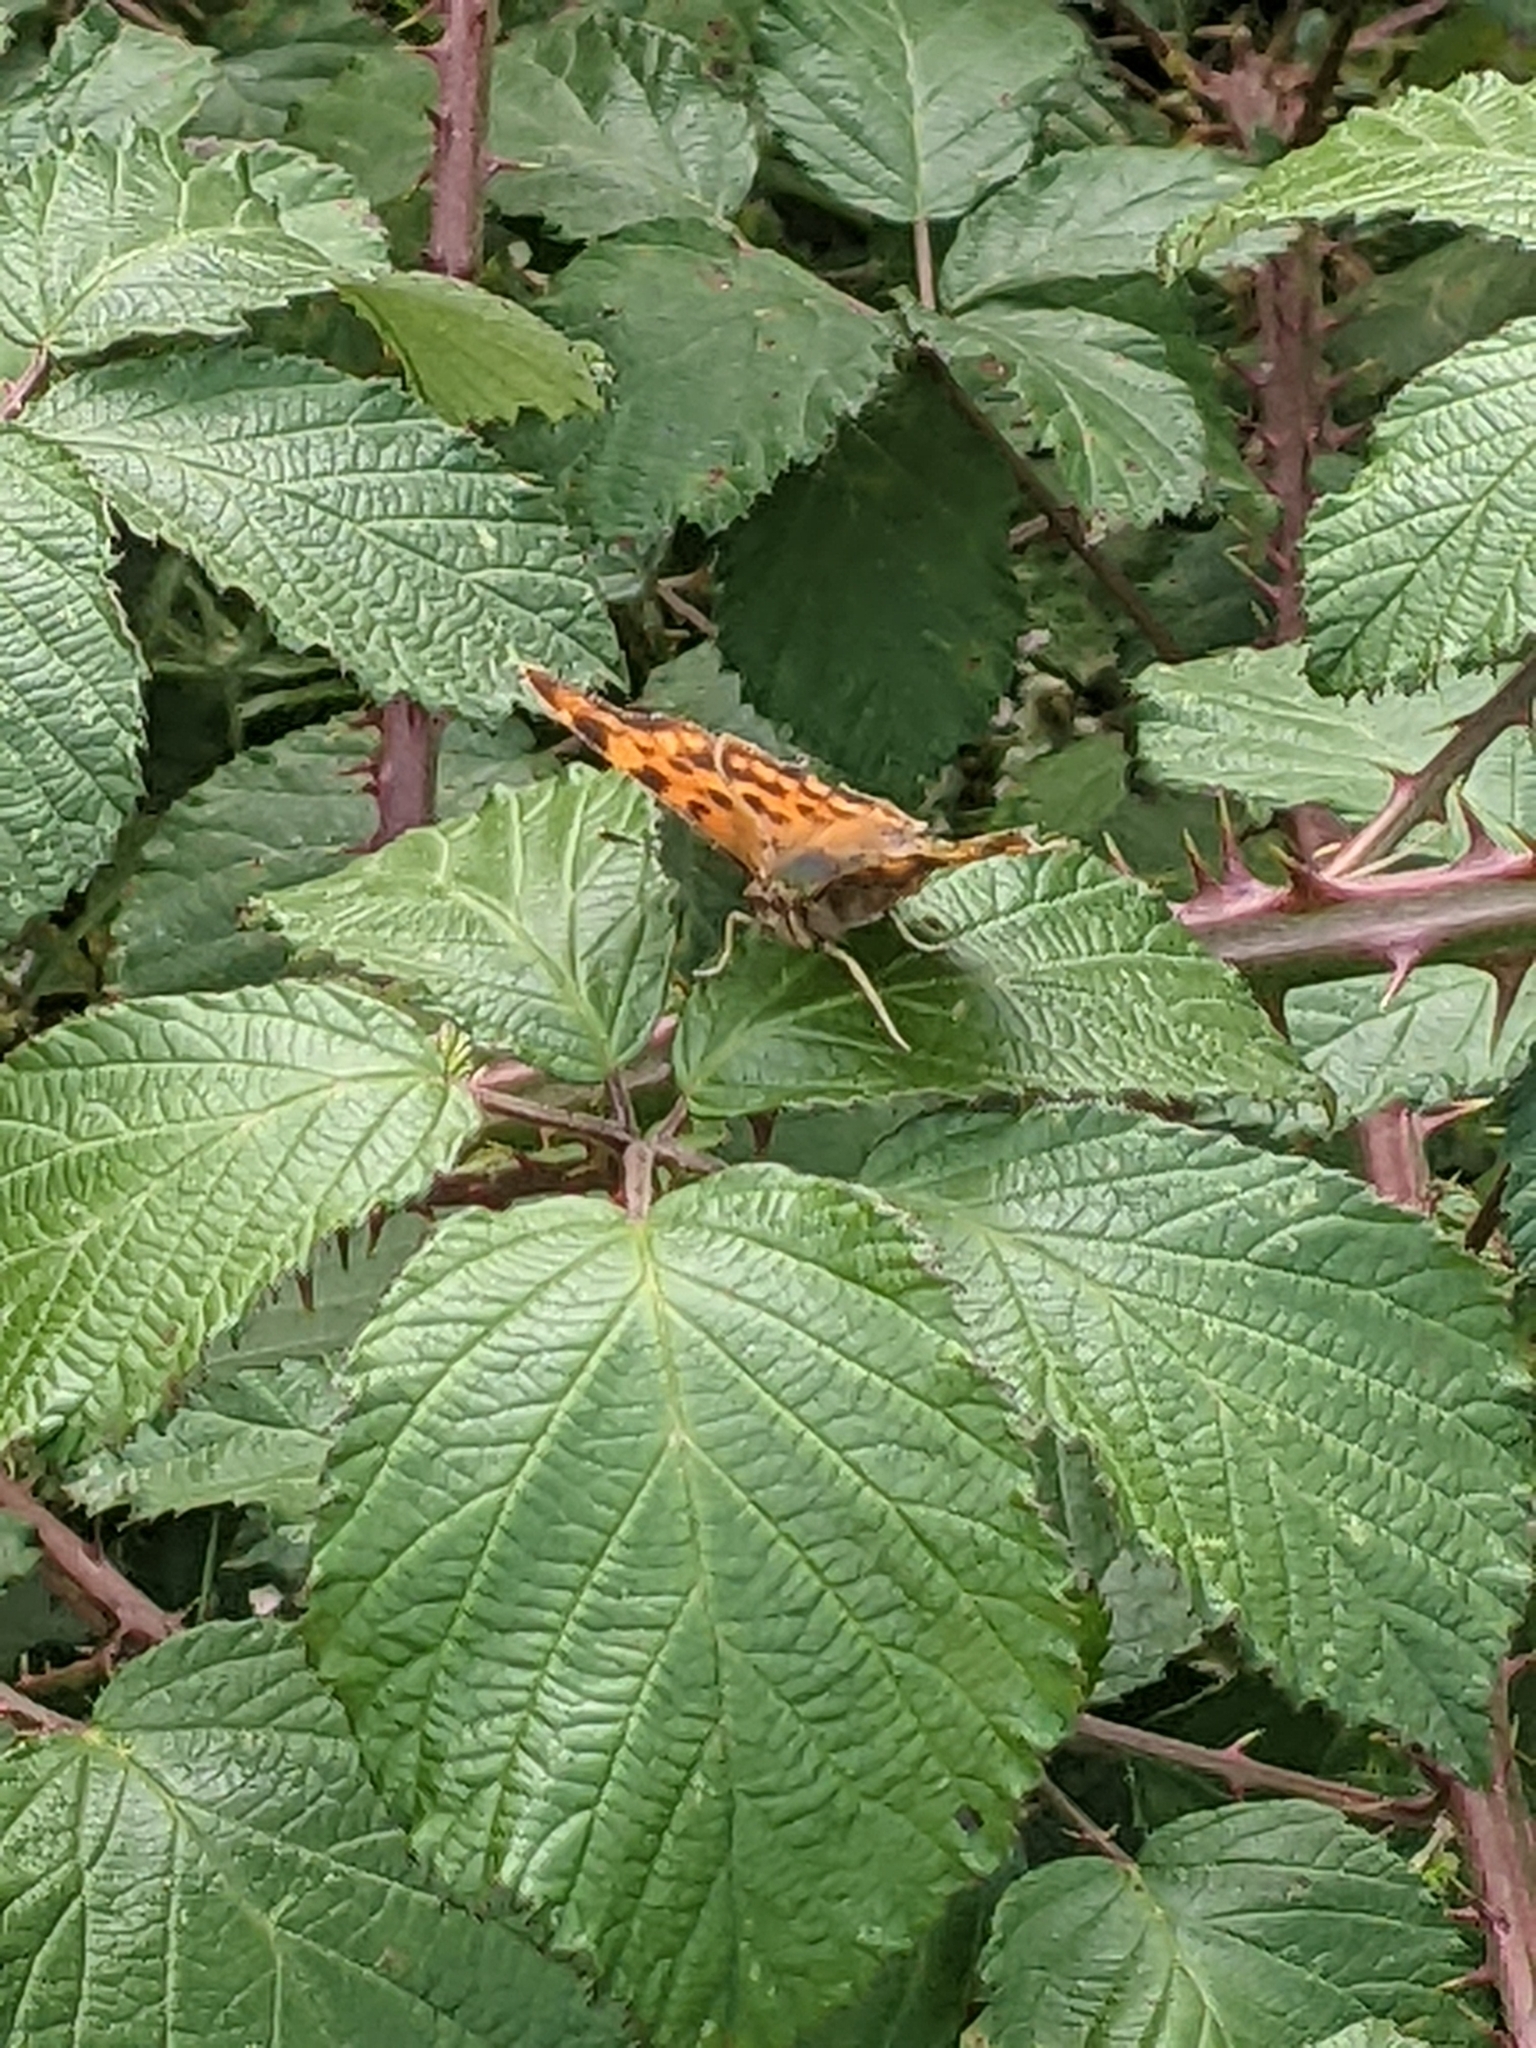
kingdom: Animalia
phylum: Arthropoda
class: Insecta
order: Lepidoptera
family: Nymphalidae
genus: Polygonia
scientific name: Polygonia c-album
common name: Comma
